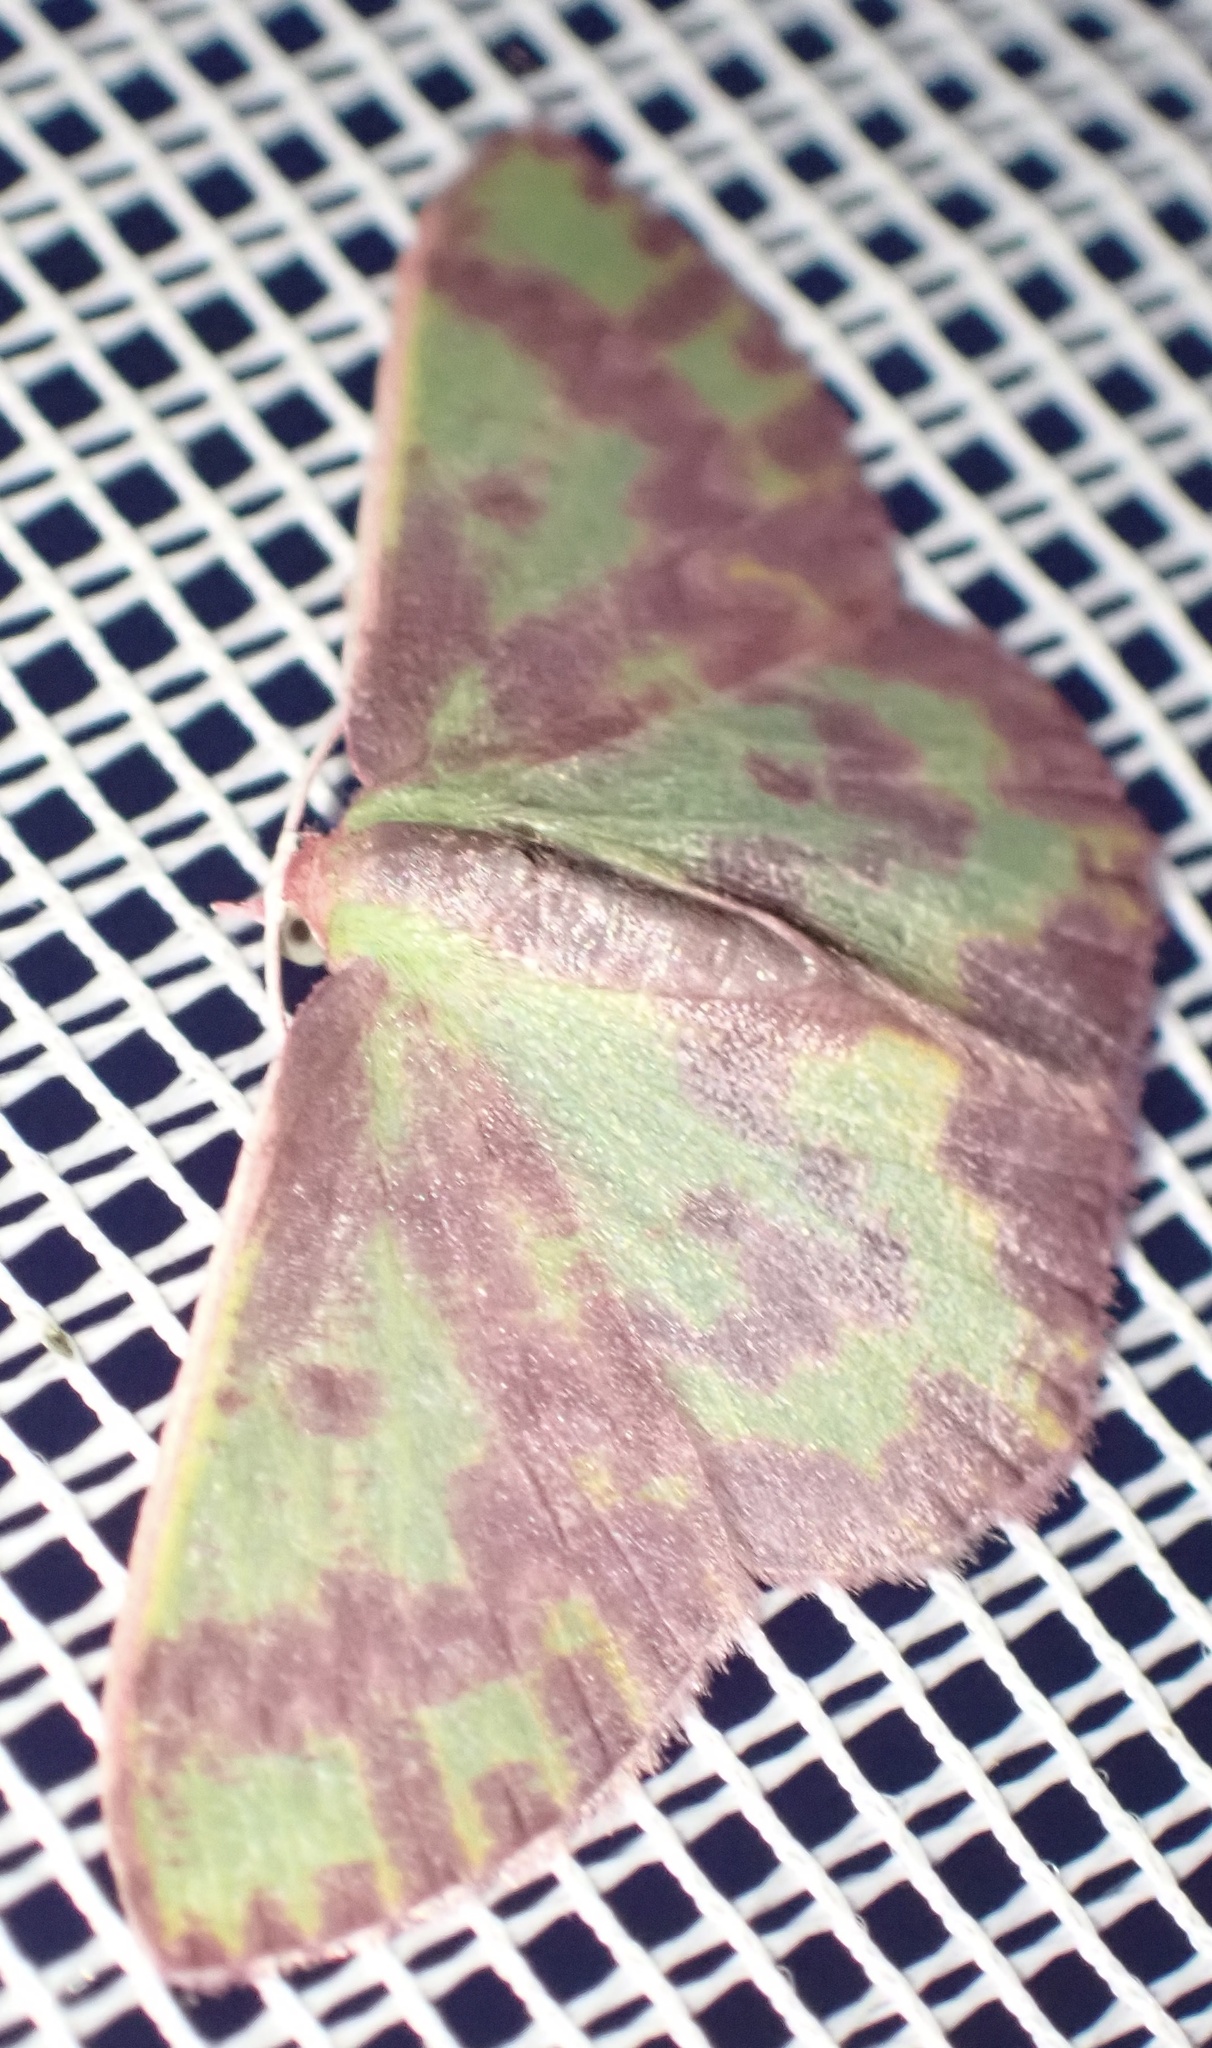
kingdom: Animalia
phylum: Arthropoda
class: Insecta
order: Lepidoptera
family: Geometridae
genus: Prasinocyma
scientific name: Prasinocyma rhodocosma
